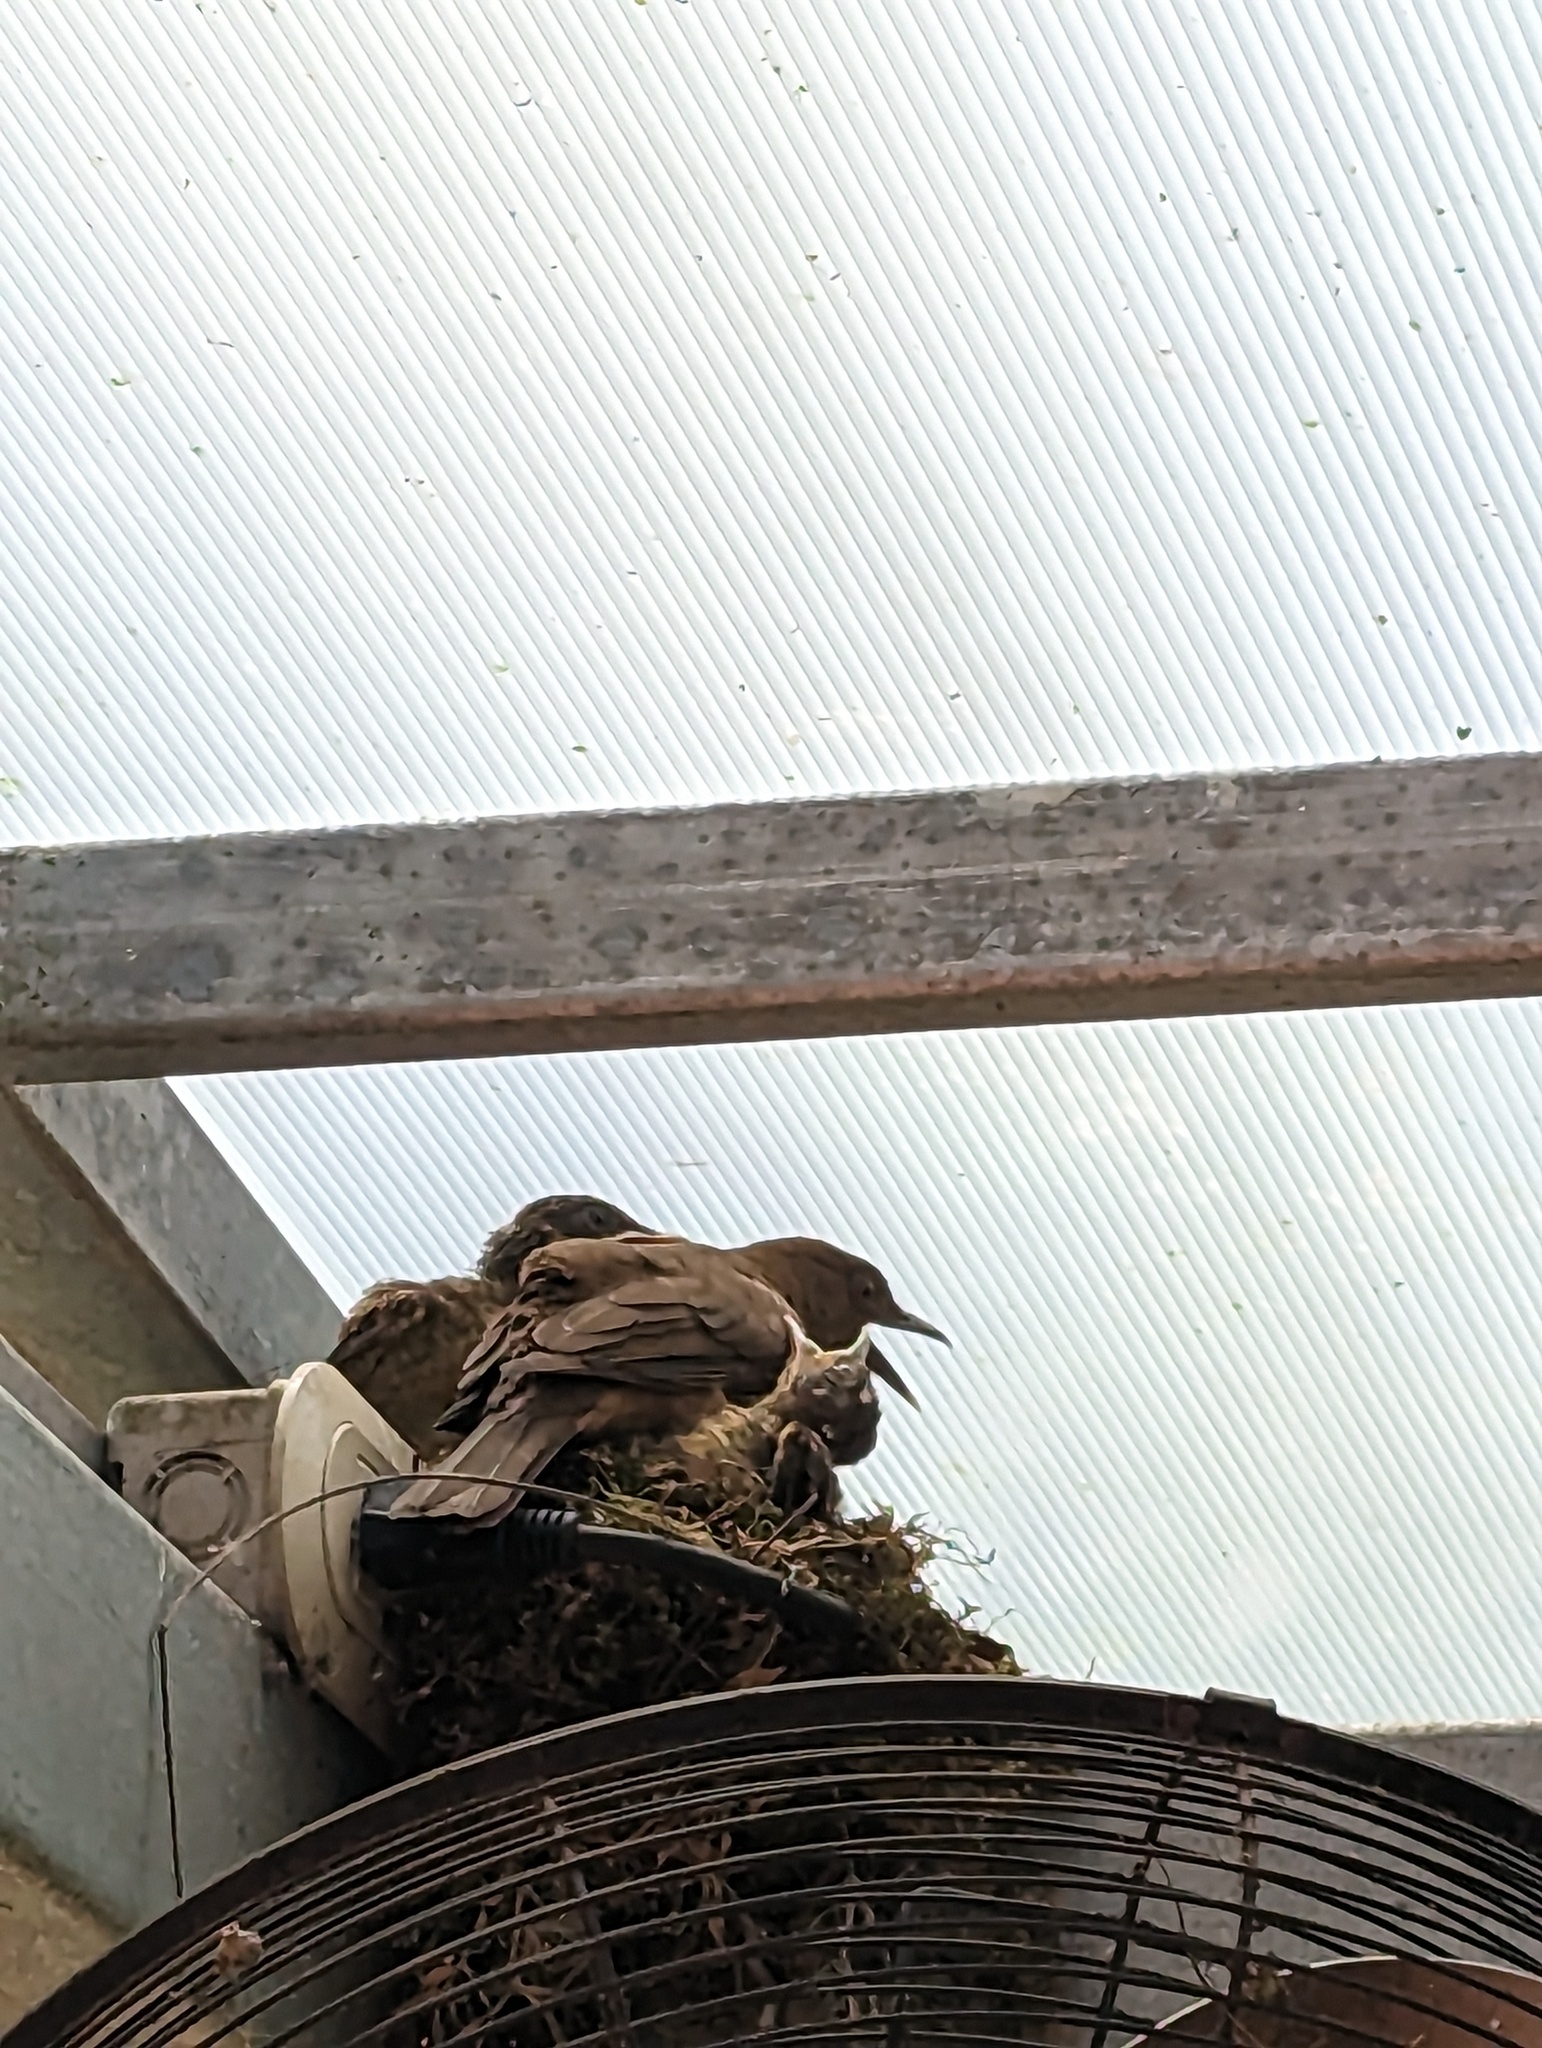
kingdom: Animalia
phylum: Chordata
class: Aves
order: Passeriformes
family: Turdidae
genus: Turdus
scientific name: Turdus grayi
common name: Clay-colored thrush
